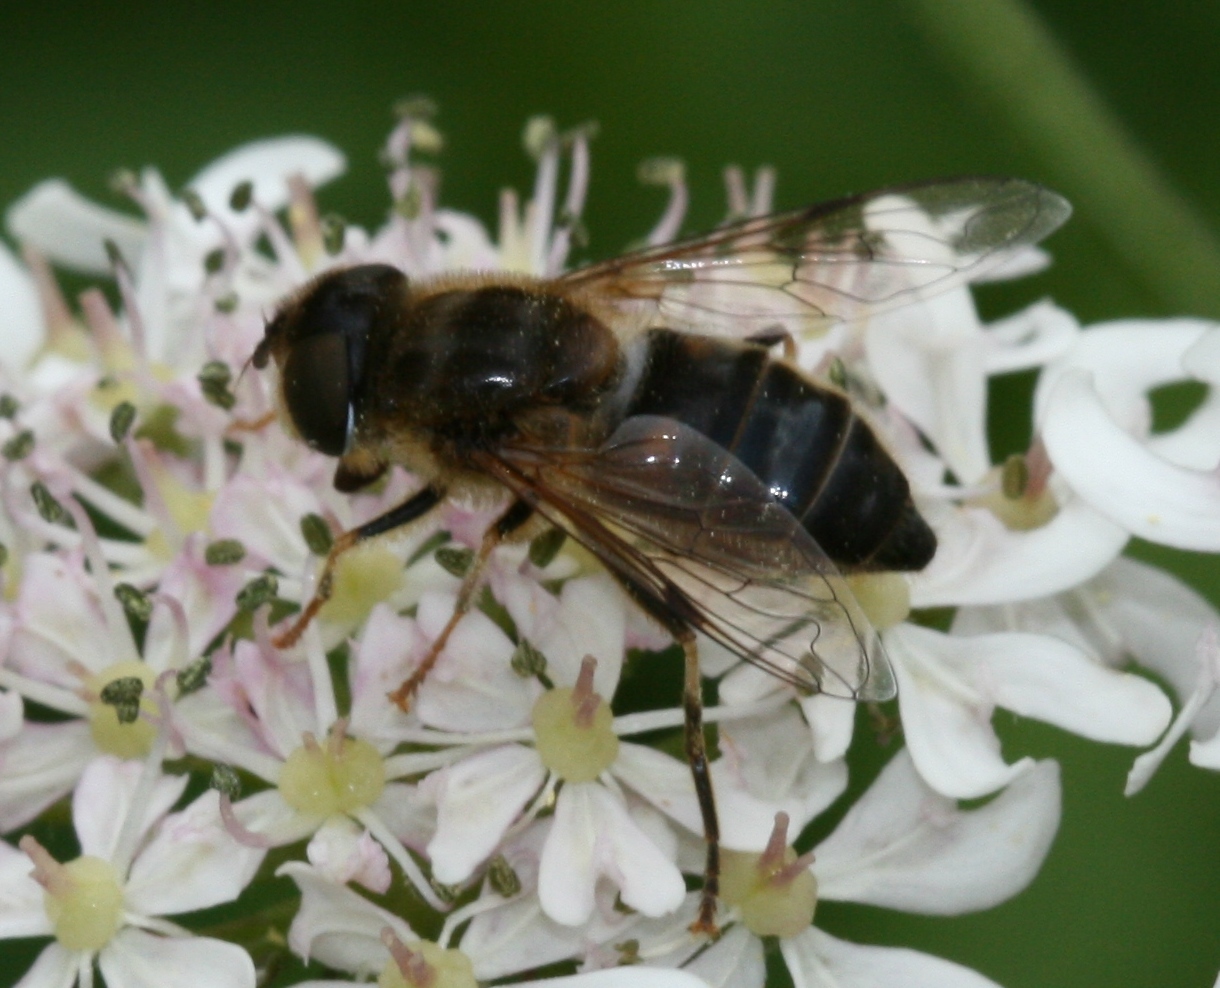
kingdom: Animalia
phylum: Arthropoda
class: Insecta
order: Diptera
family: Syrphidae
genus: Eristalis
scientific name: Eristalis pertinax
